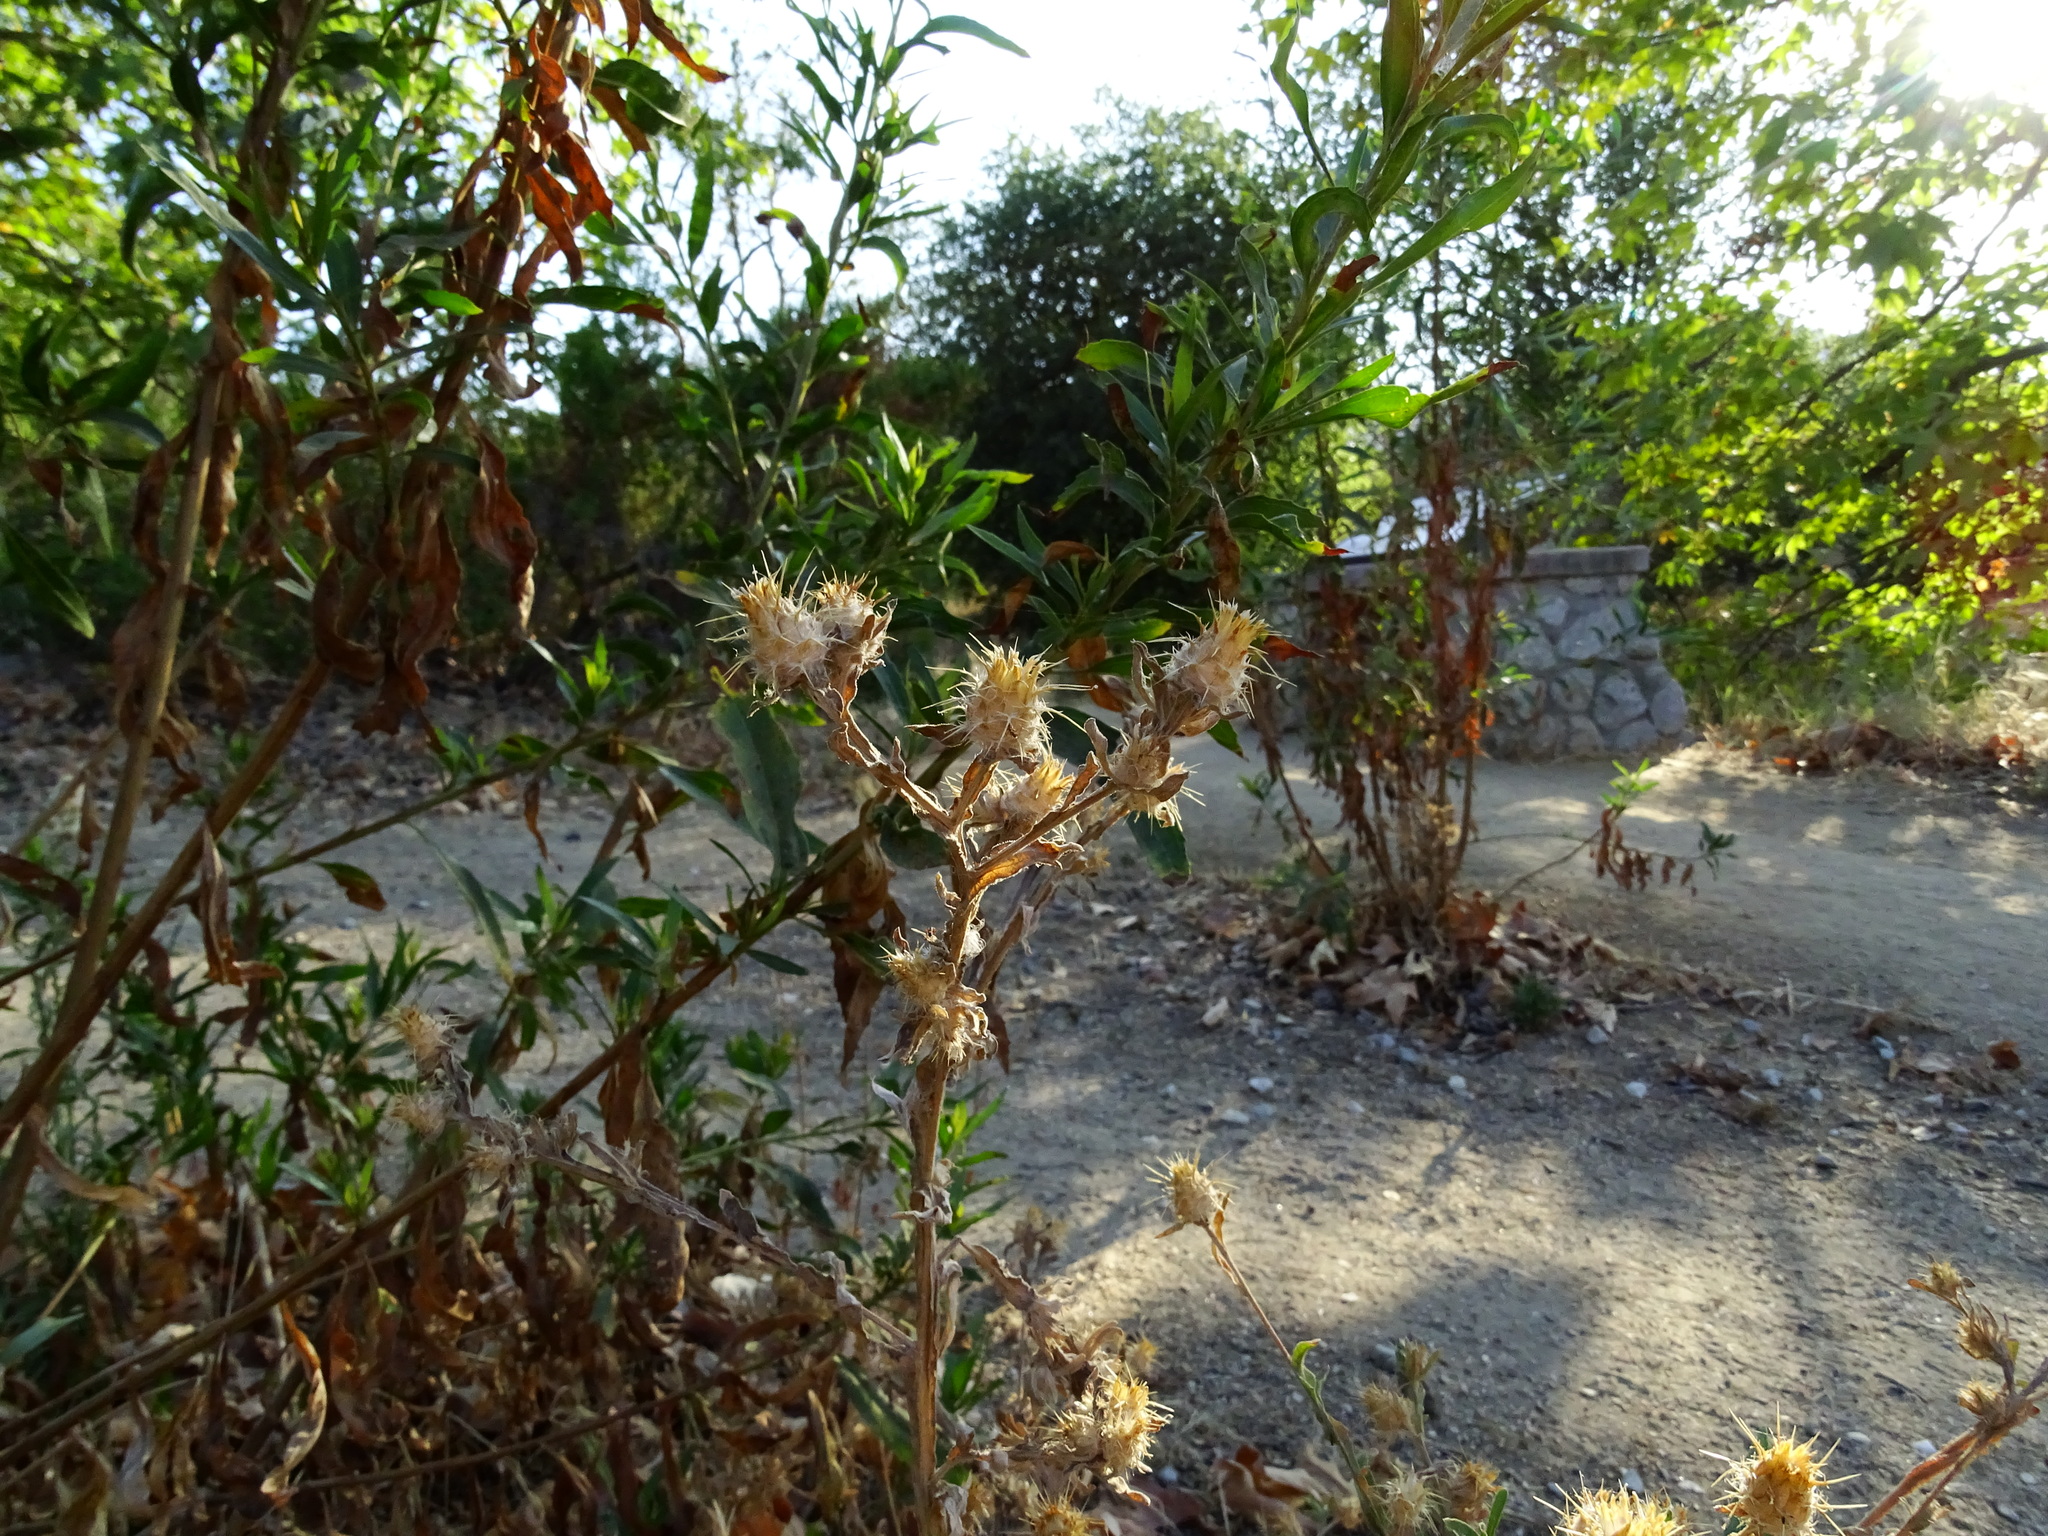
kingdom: Plantae
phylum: Tracheophyta
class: Magnoliopsida
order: Asterales
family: Asteraceae
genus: Centaurea
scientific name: Centaurea melitensis
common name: Maltese star-thistle
